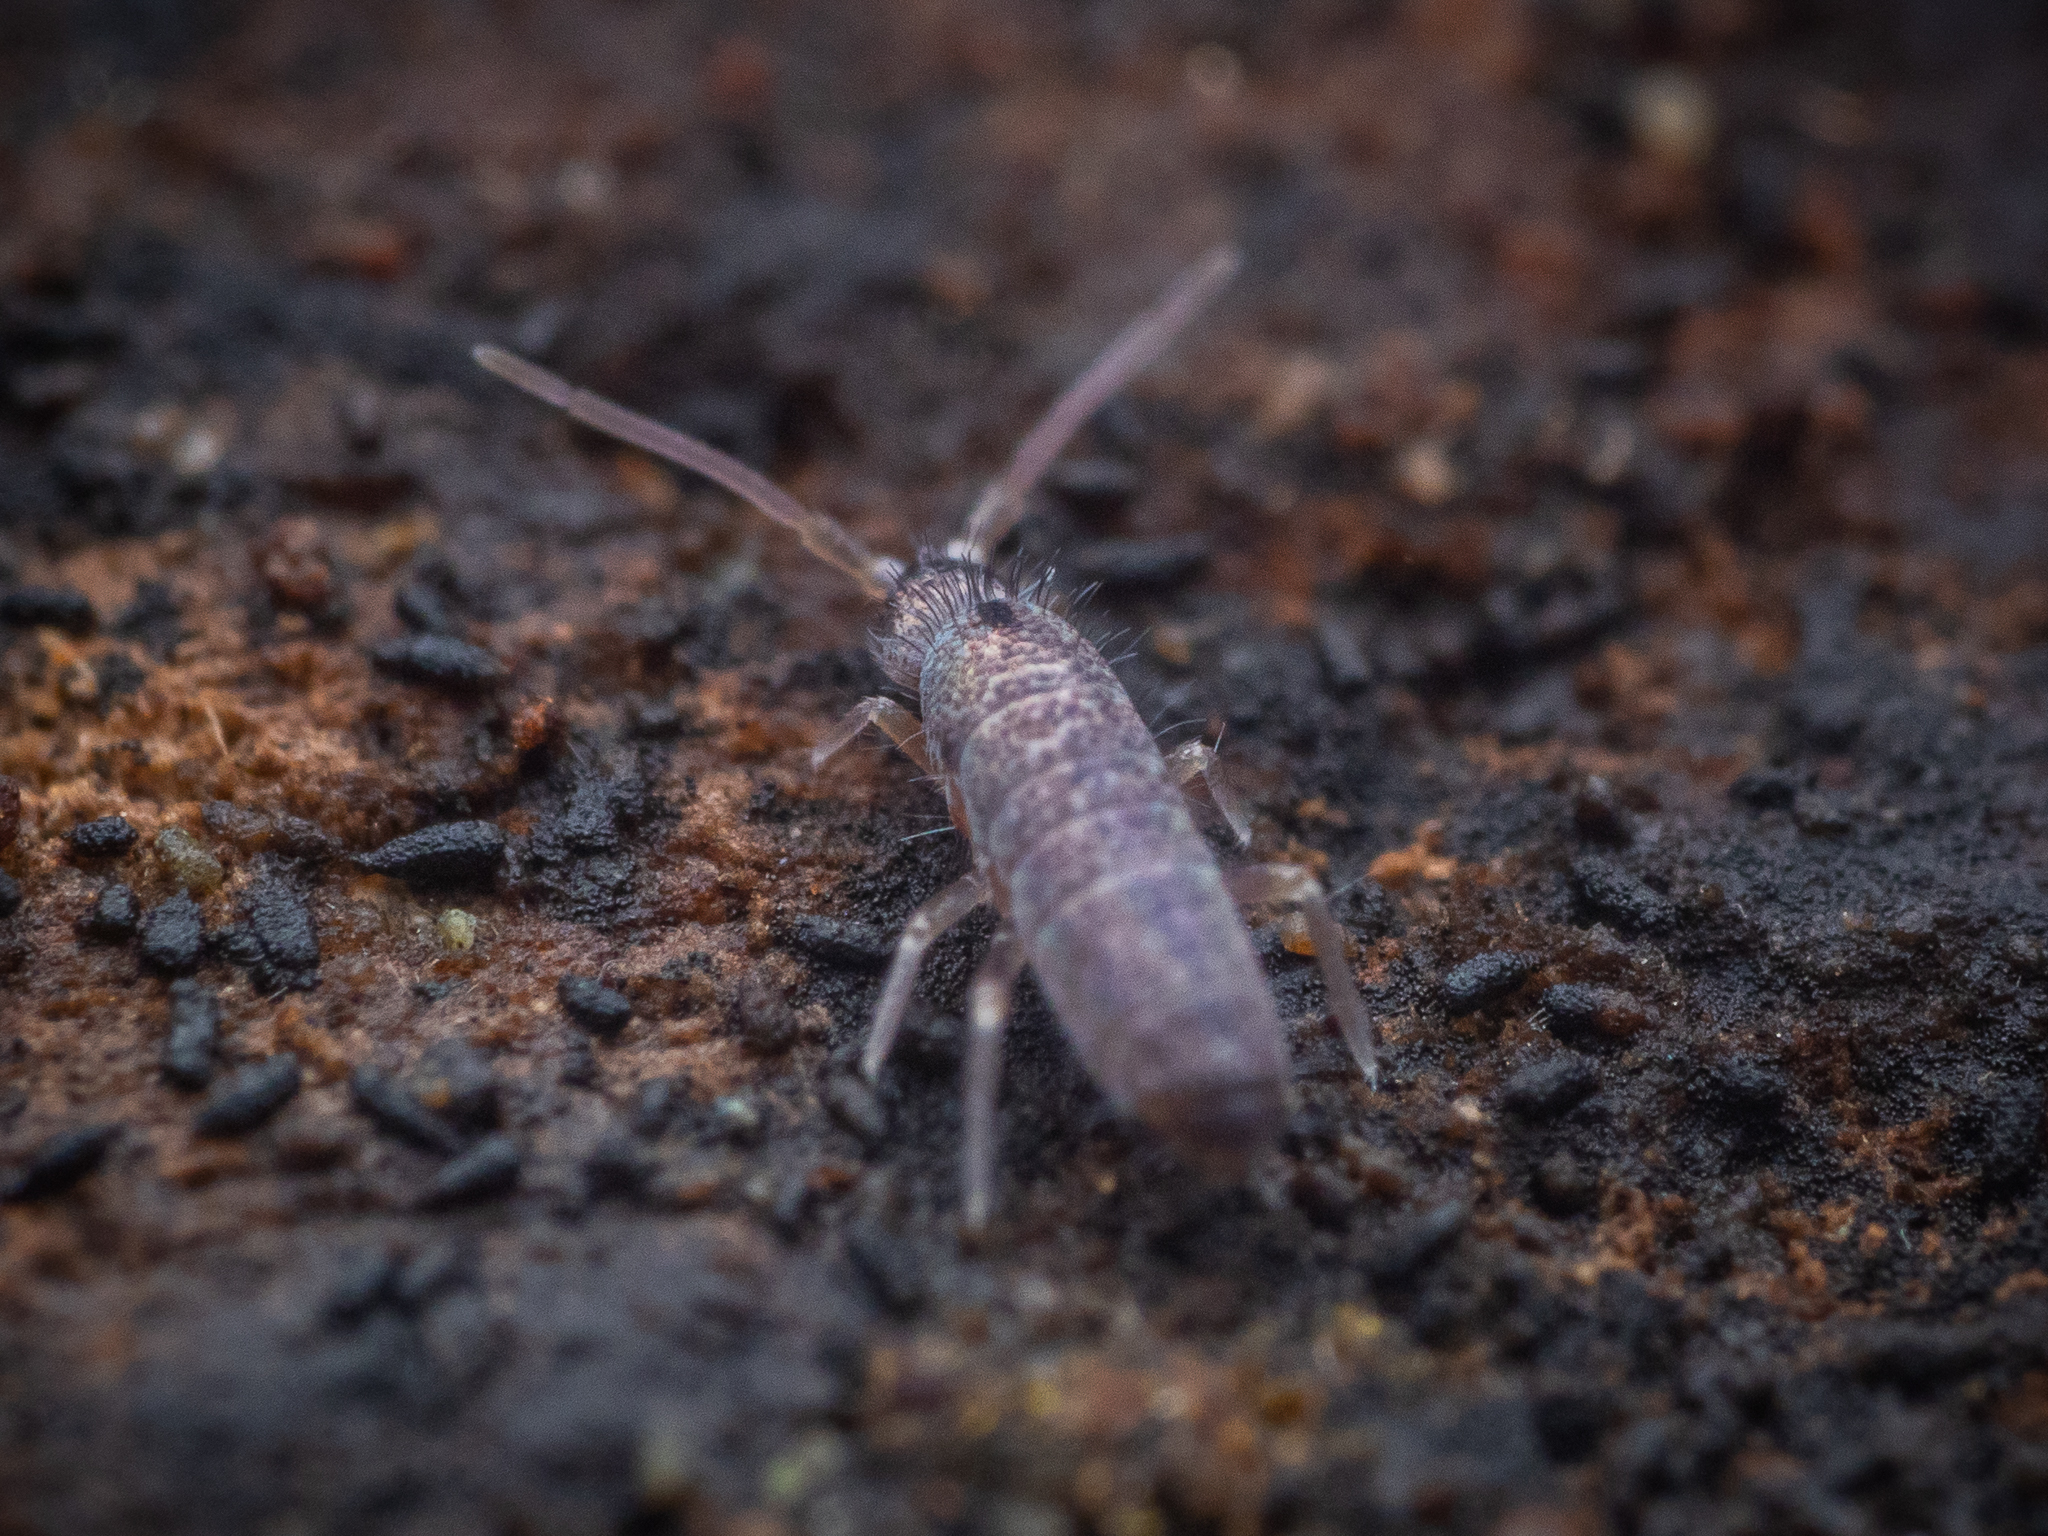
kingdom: Animalia
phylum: Arthropoda
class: Collembola
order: Entomobryomorpha
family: Tomoceridae
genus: Tomocerus
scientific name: Tomocerus minor
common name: Springtail
